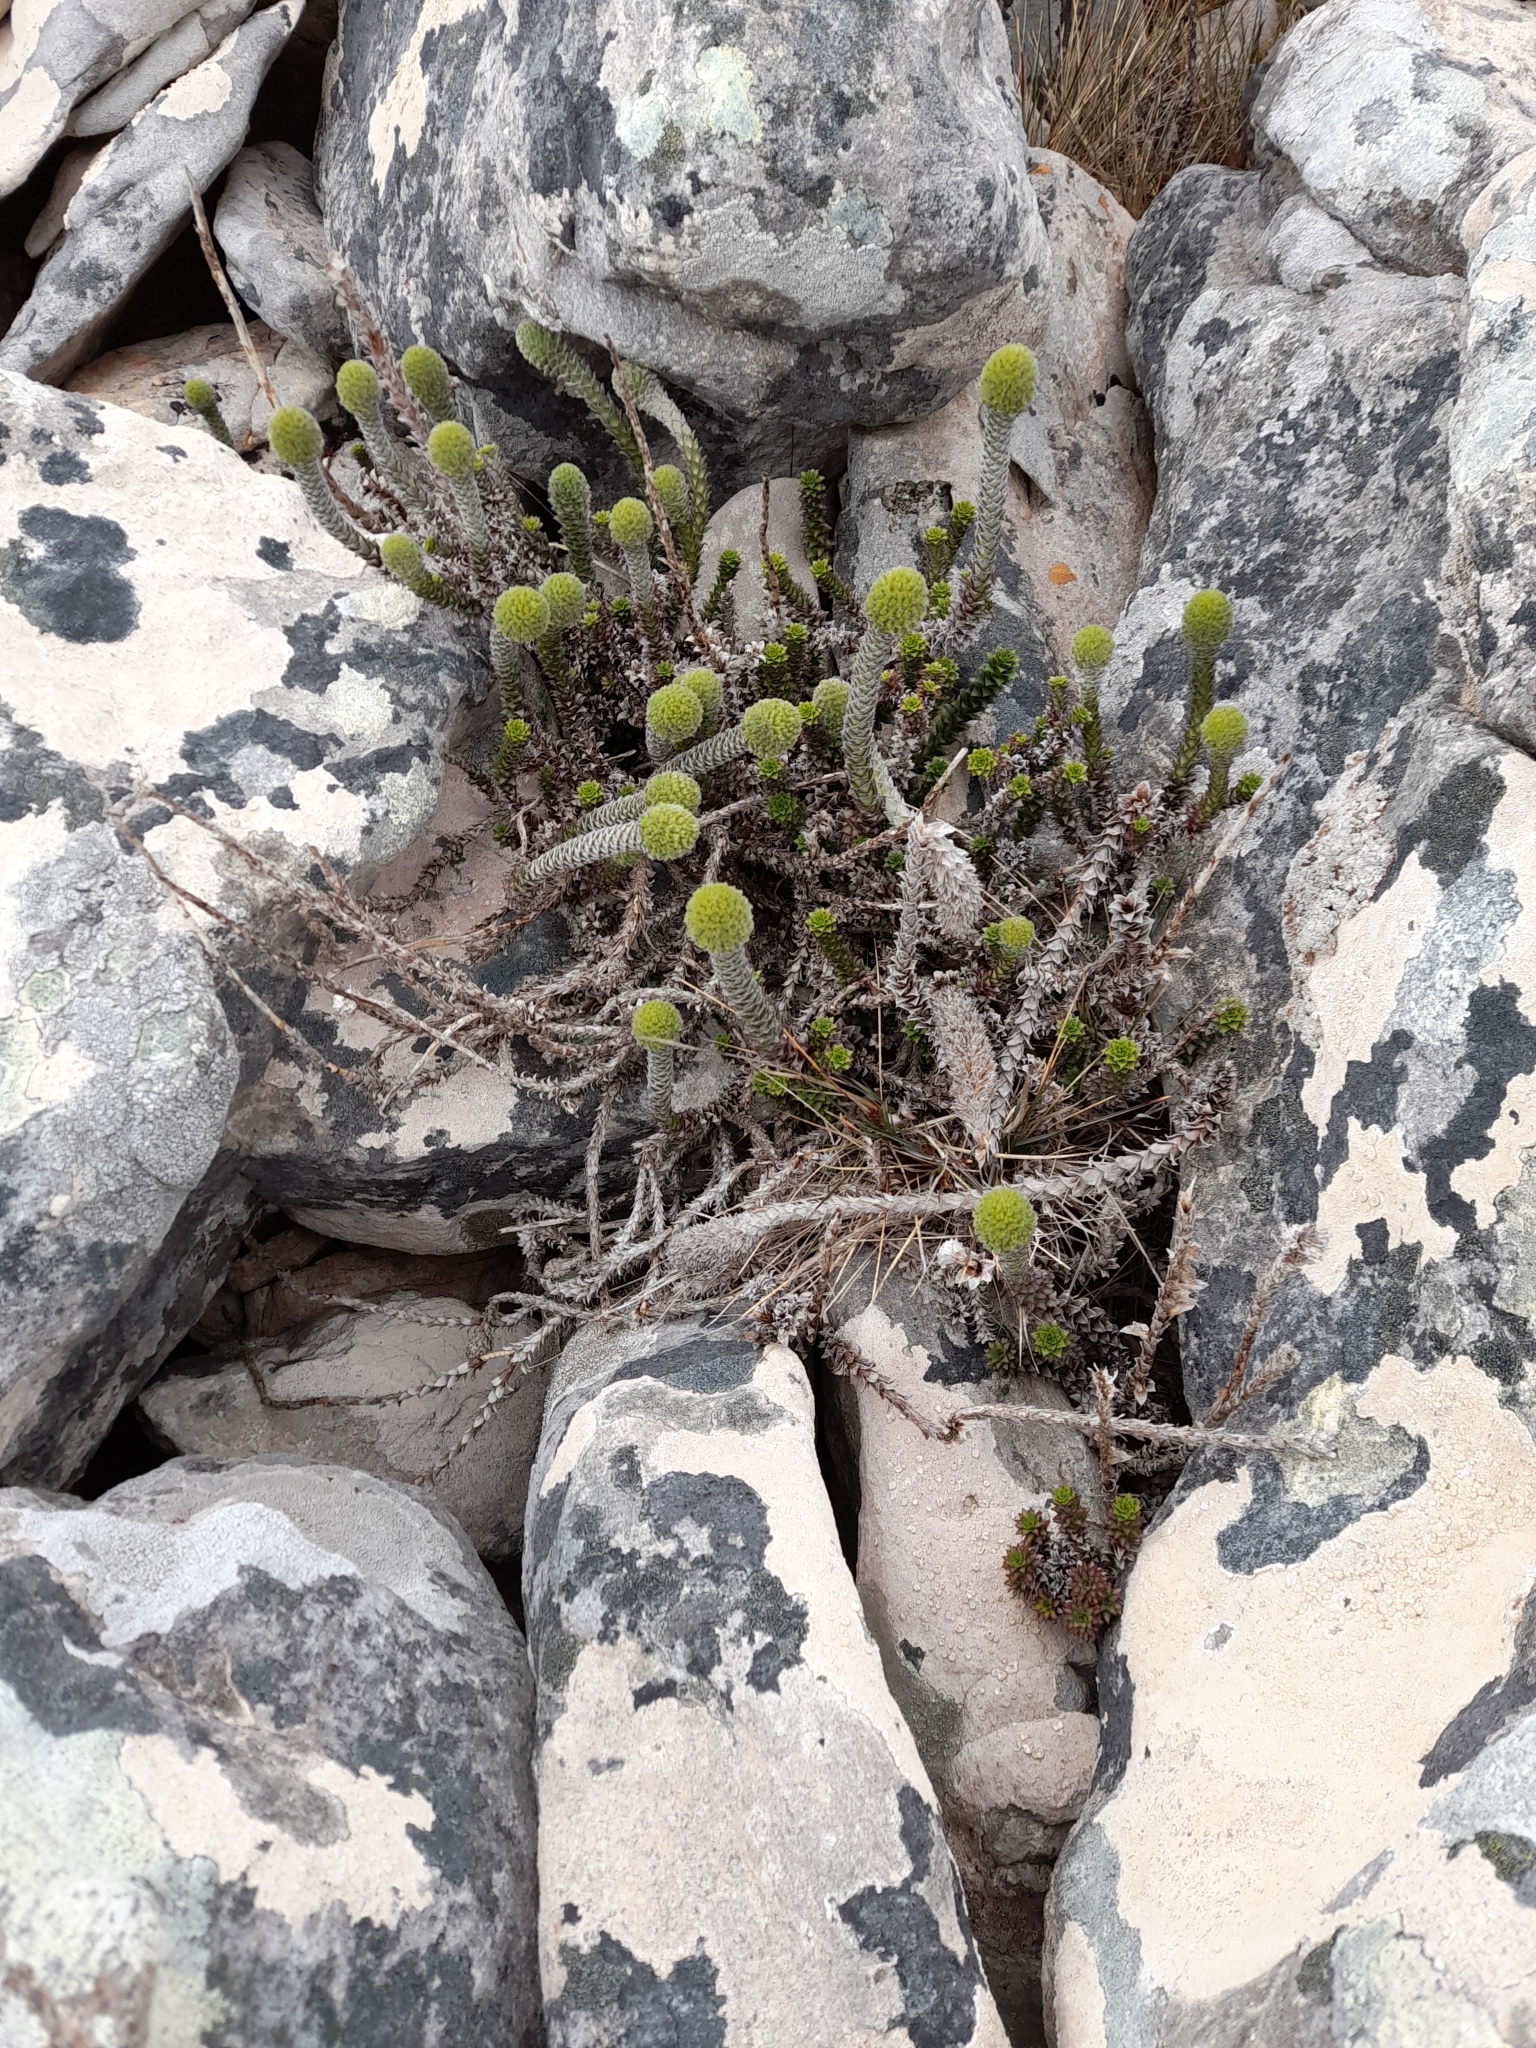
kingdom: Plantae
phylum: Tracheophyta
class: Magnoliopsida
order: Asterales
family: Asteraceae
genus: Nassauvia
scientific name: Nassauvia serpens
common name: Snakeplant
